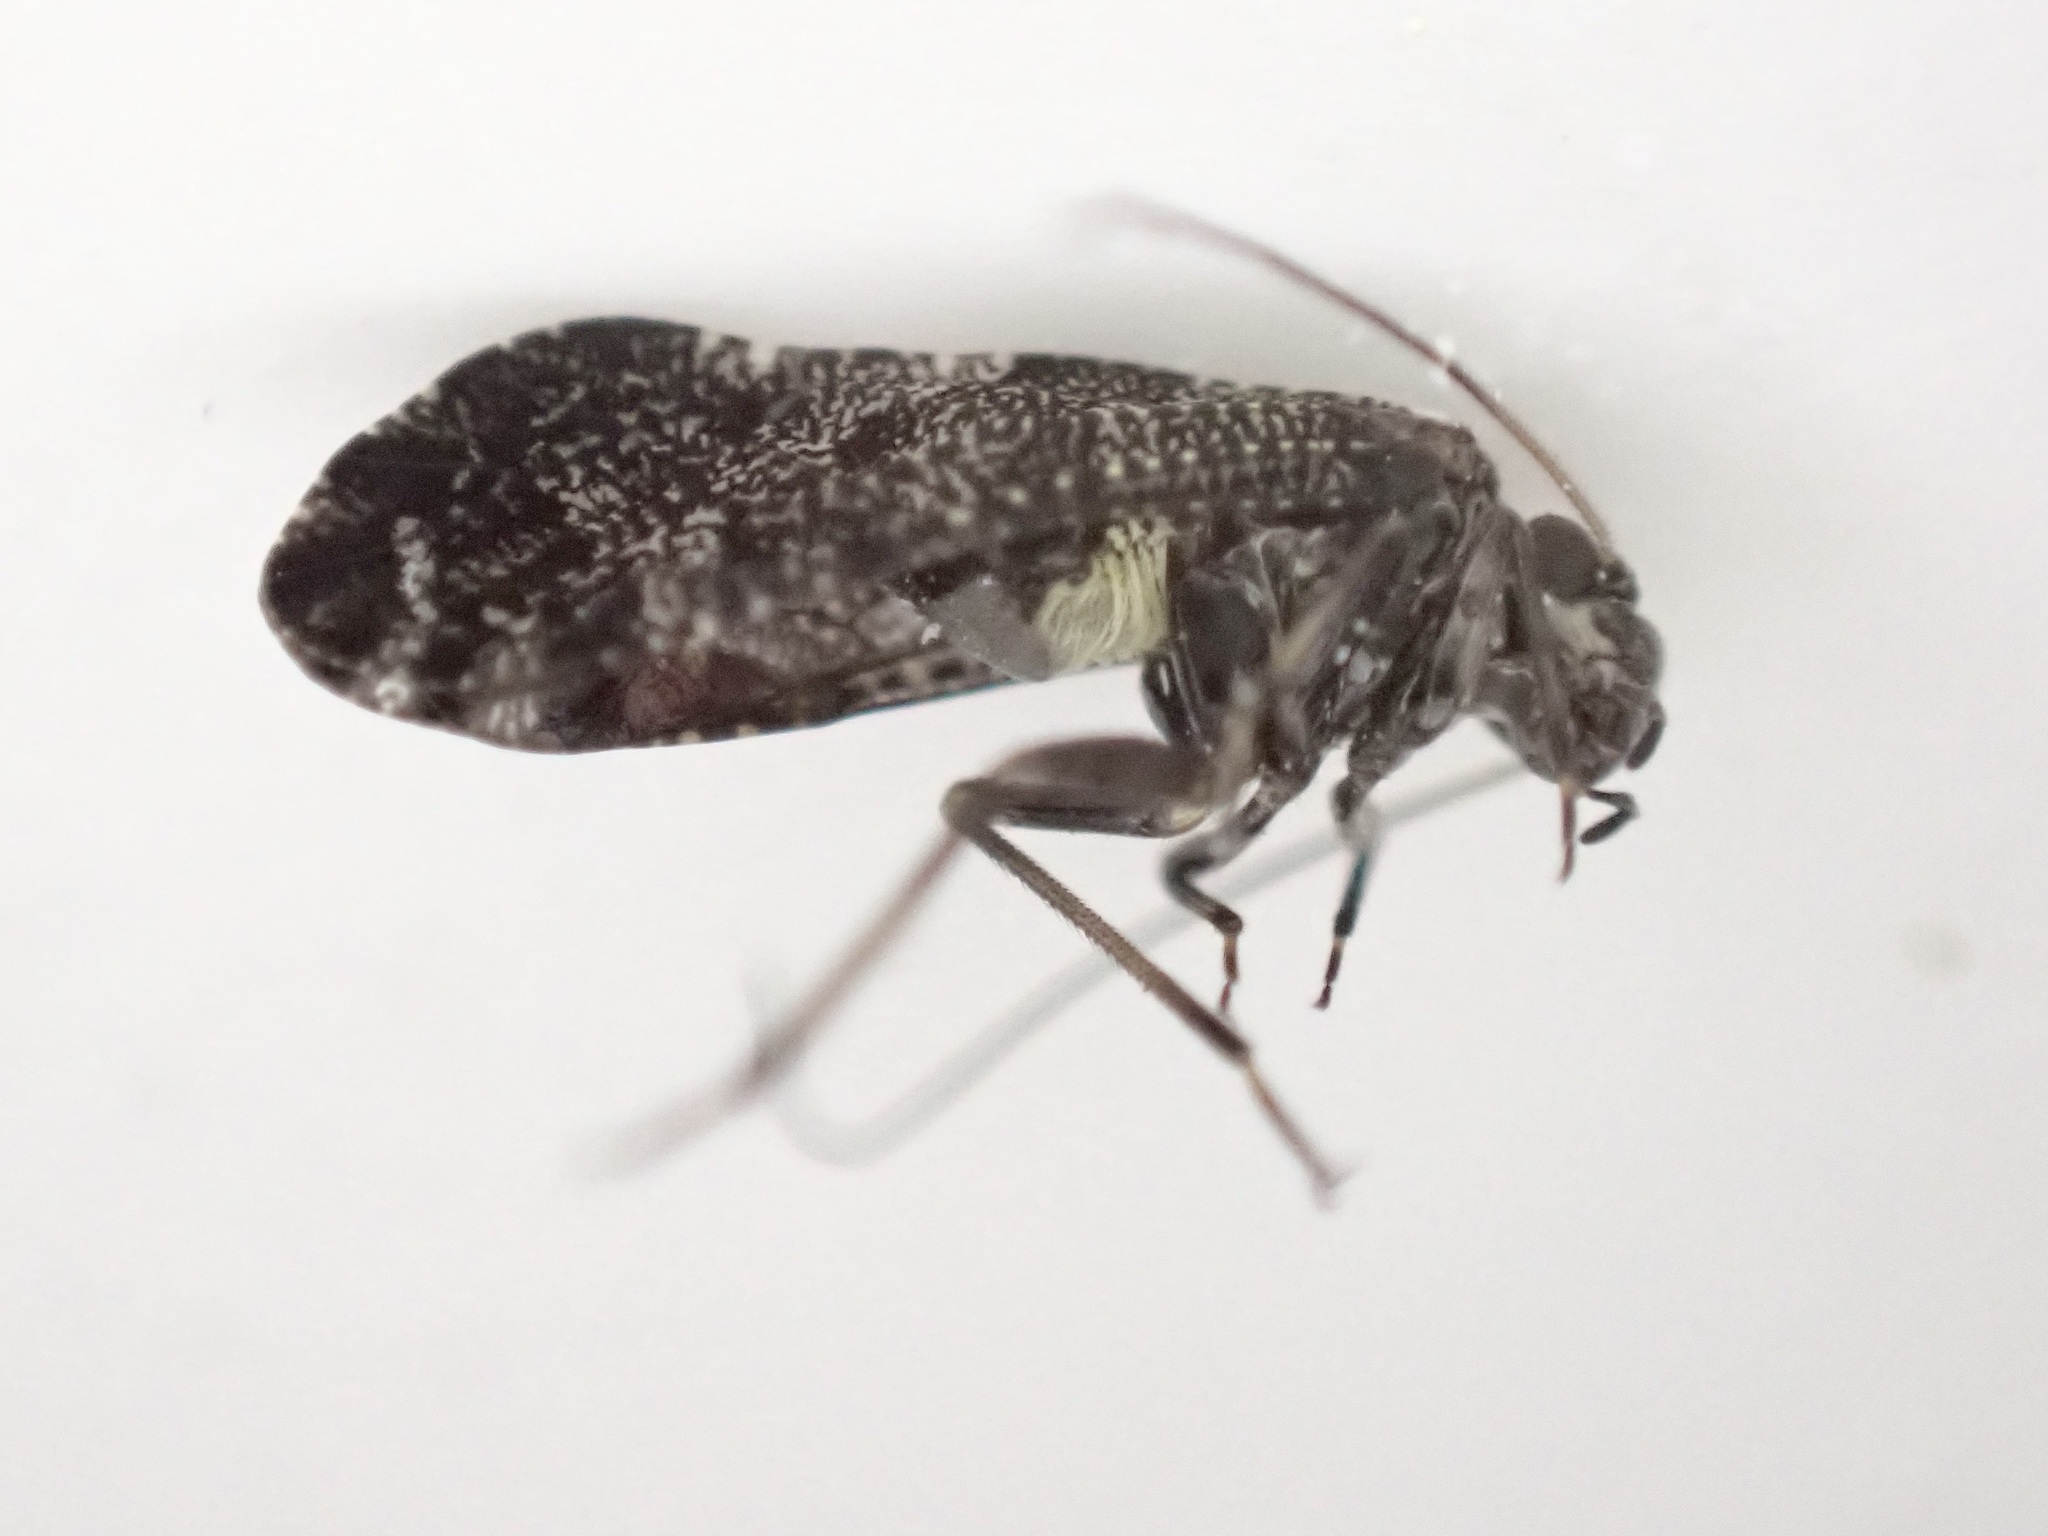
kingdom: Animalia
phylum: Arthropoda
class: Insecta
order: Psocodea
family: Myopsocidae
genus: Nimbopsocus
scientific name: Nimbopsocus australis
